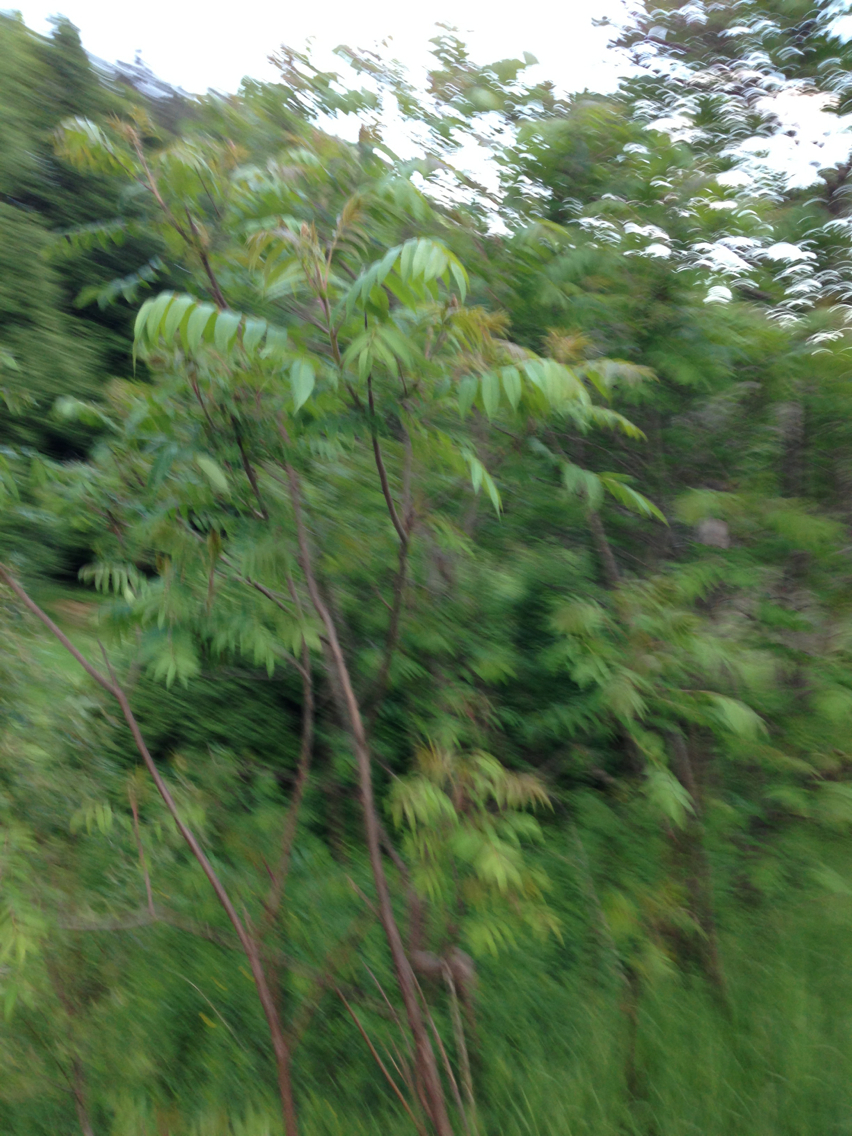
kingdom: Plantae
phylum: Tracheophyta
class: Magnoliopsida
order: Sapindales
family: Anacardiaceae
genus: Rhus
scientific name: Rhus typhina
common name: Staghorn sumac
